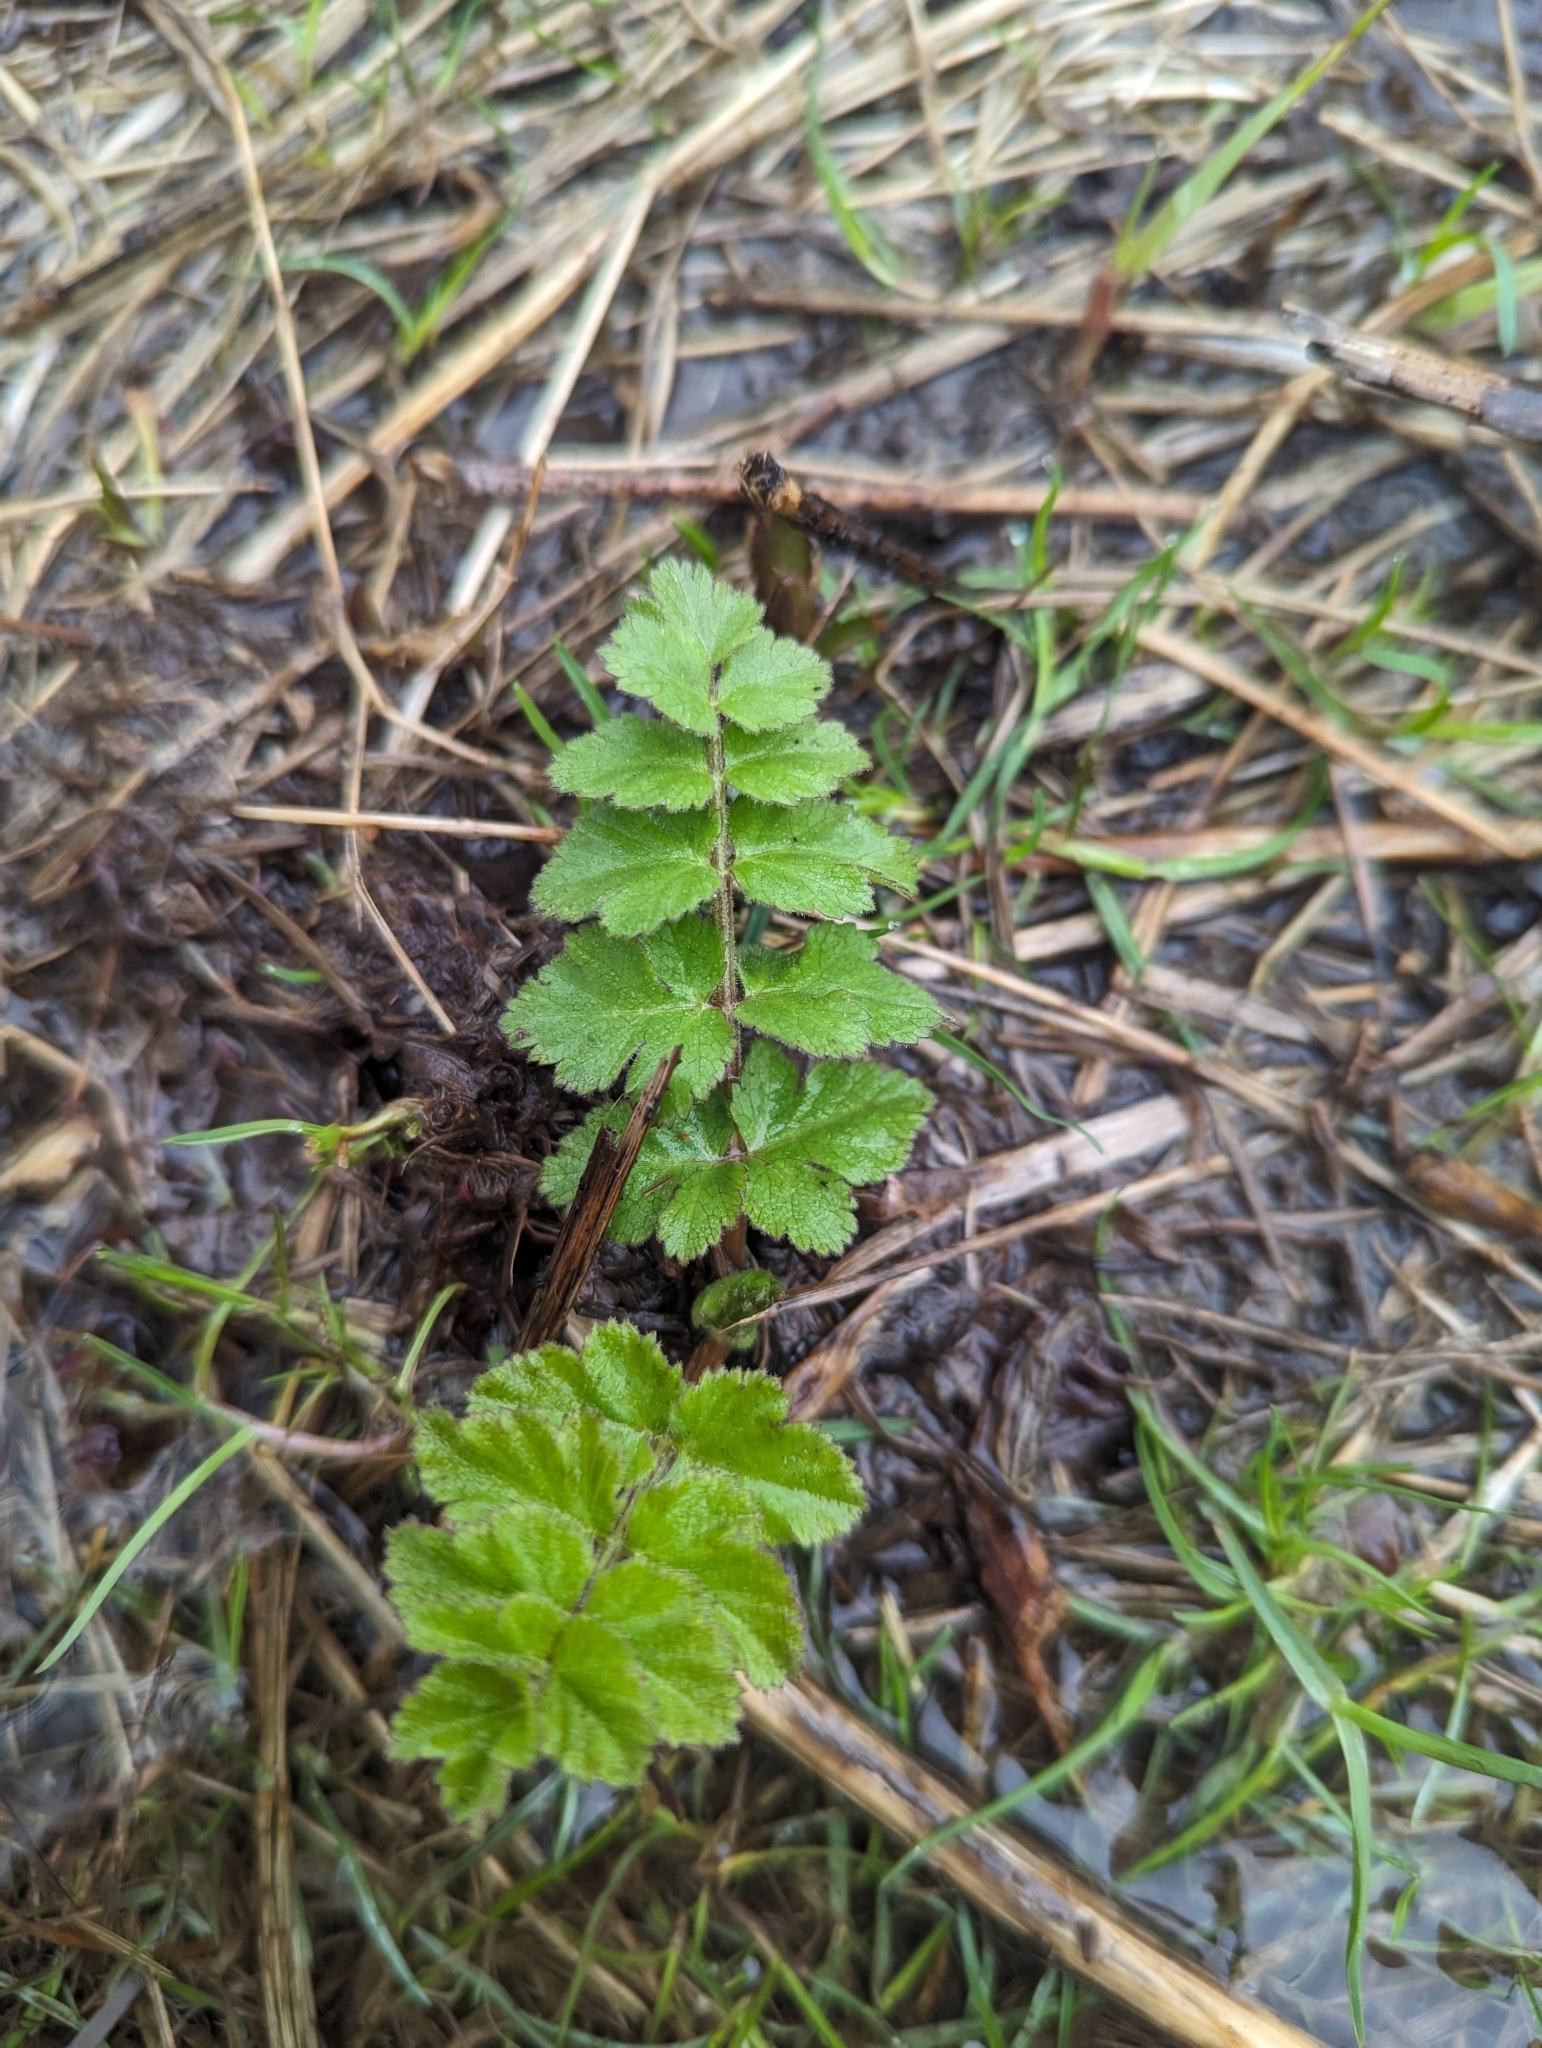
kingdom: Plantae
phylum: Tracheophyta
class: Magnoliopsida
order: Apiales
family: Apiaceae
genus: Pastinaca
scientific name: Pastinaca sativa
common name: Wild parsnip
